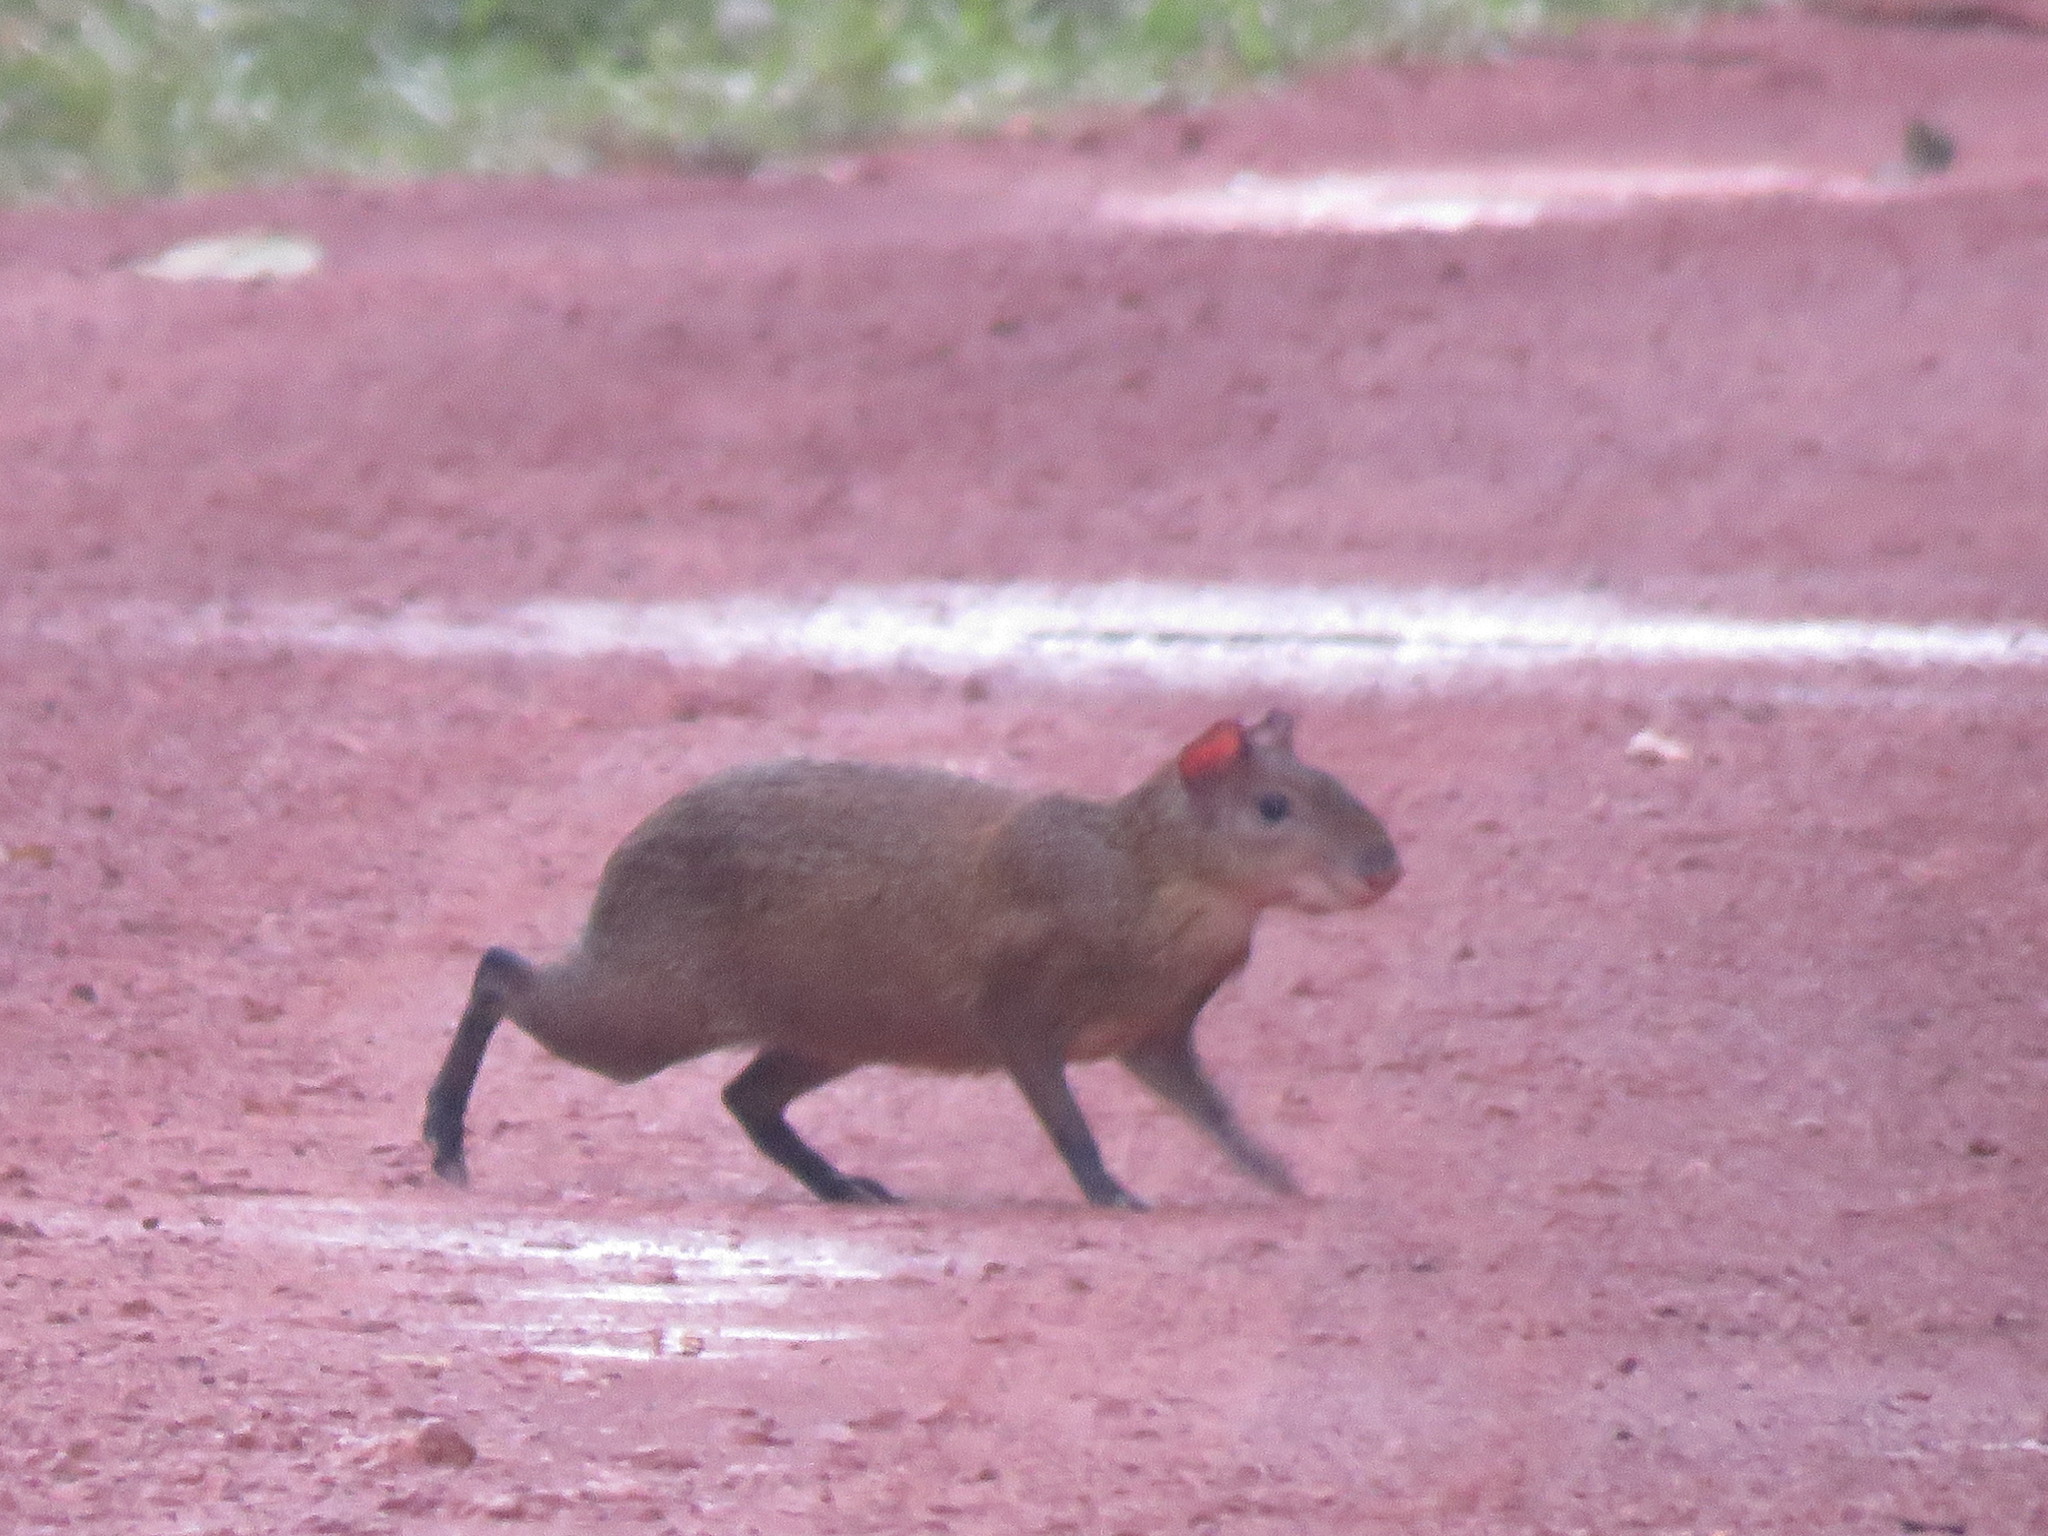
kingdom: Animalia
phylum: Chordata
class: Mammalia
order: Rodentia
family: Dasyproctidae
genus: Dasyprocta
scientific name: Dasyprocta variegata
